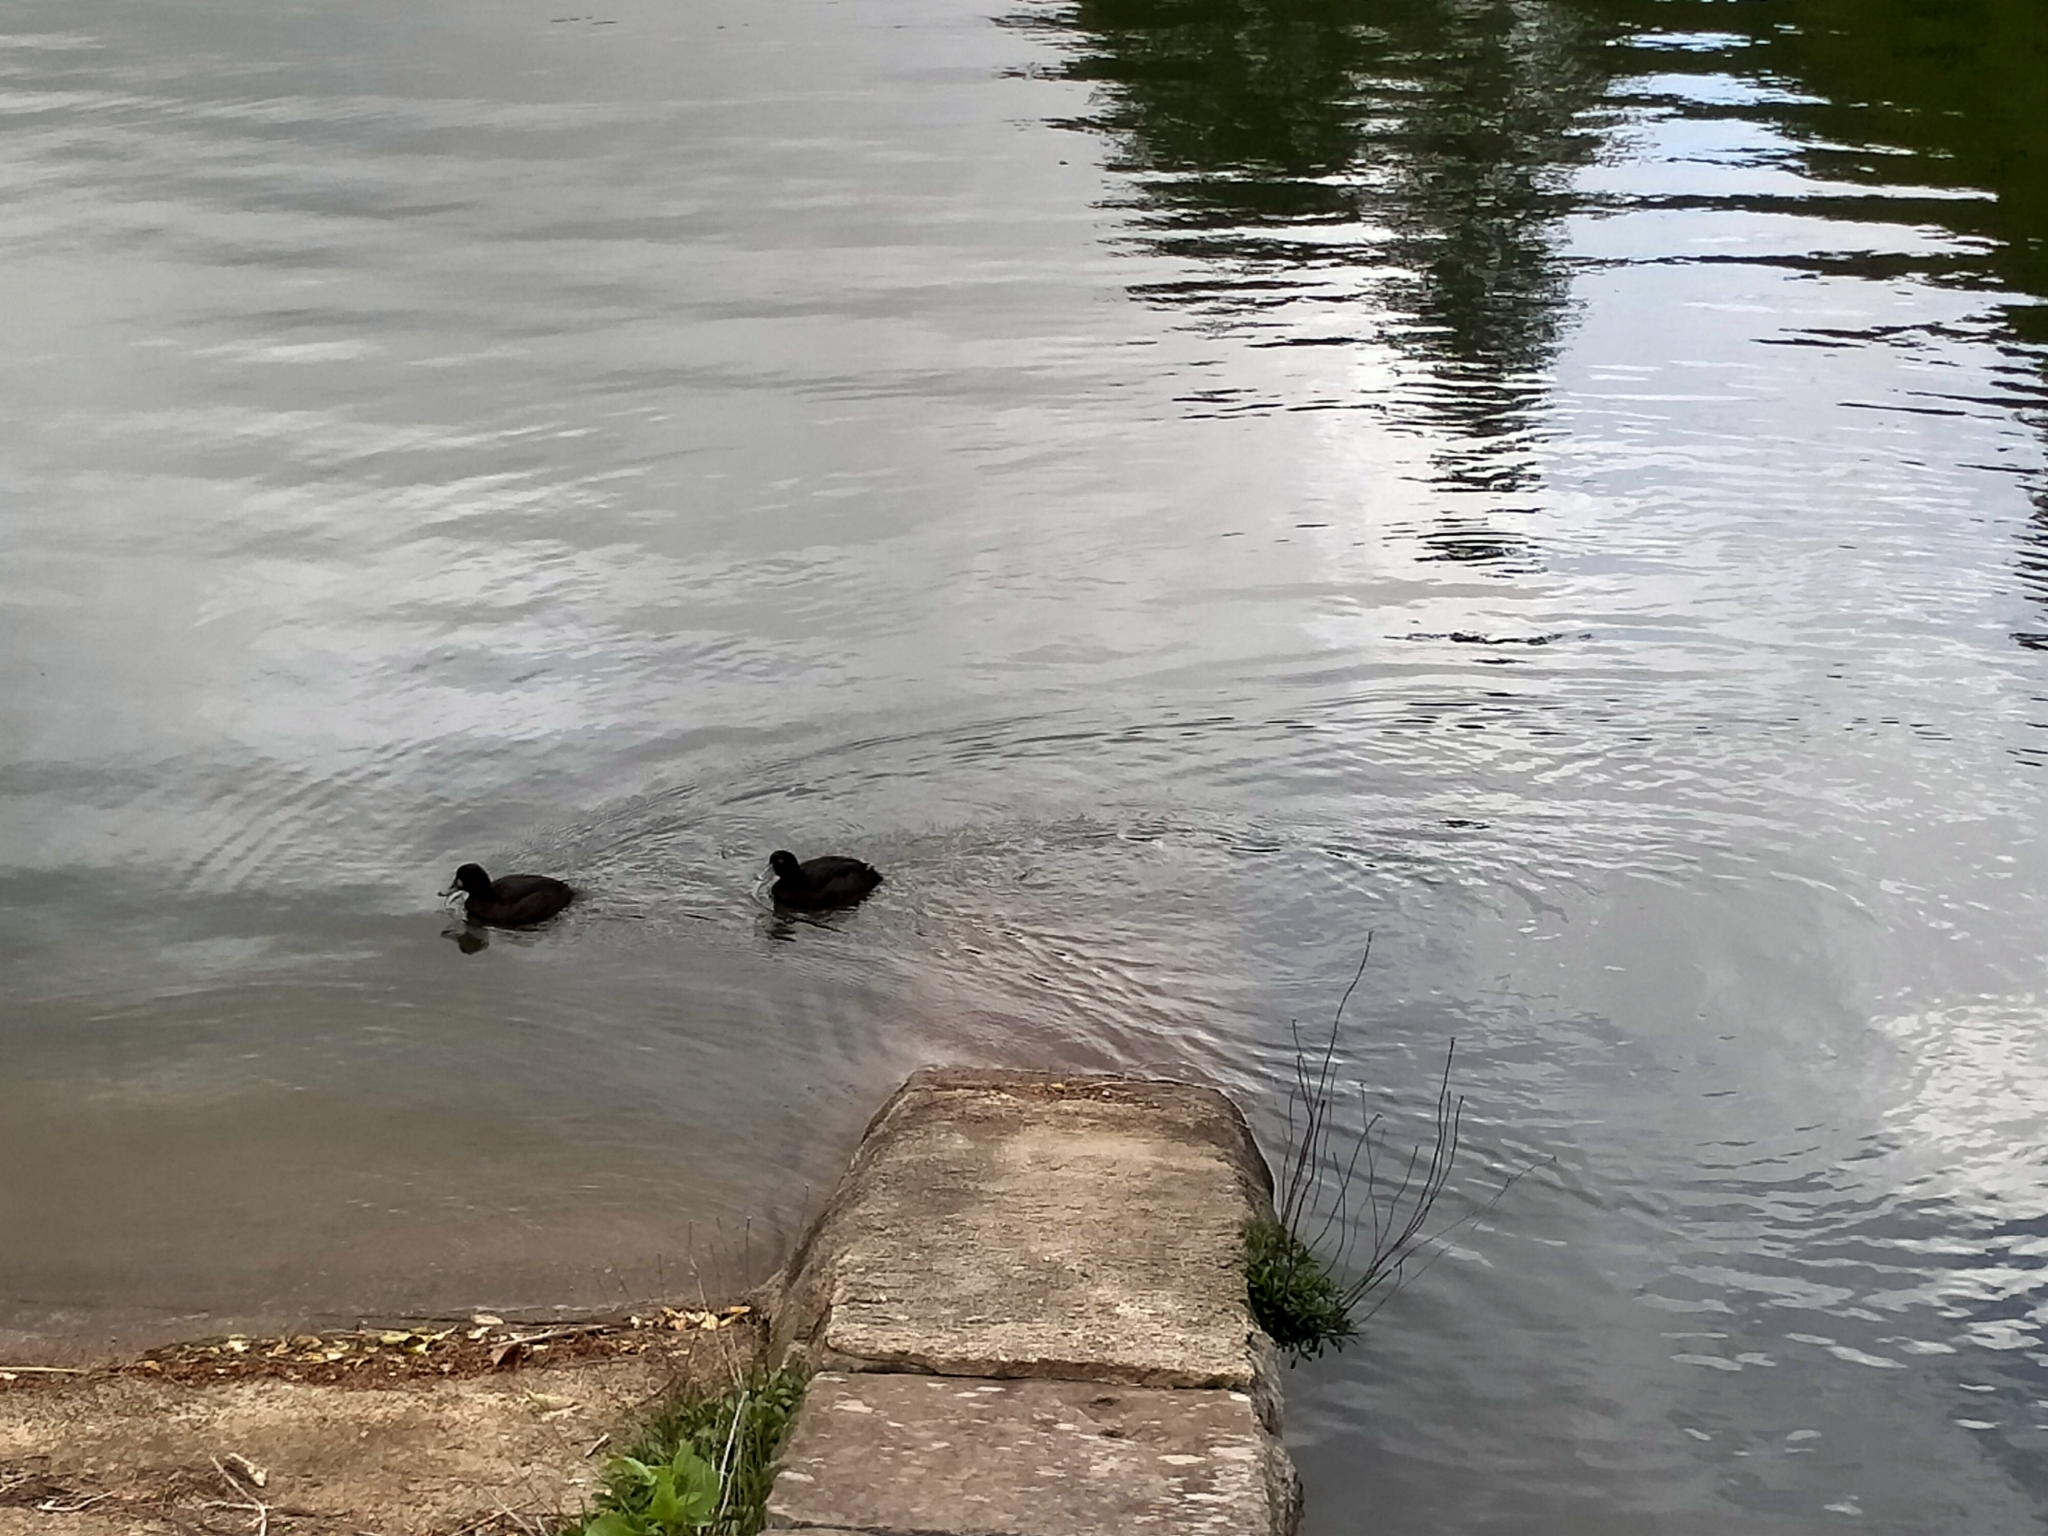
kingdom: Animalia
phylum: Chordata
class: Aves
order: Anseriformes
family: Anatidae
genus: Aythya
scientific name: Aythya novaeseelandiae
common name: New zealand scaup
